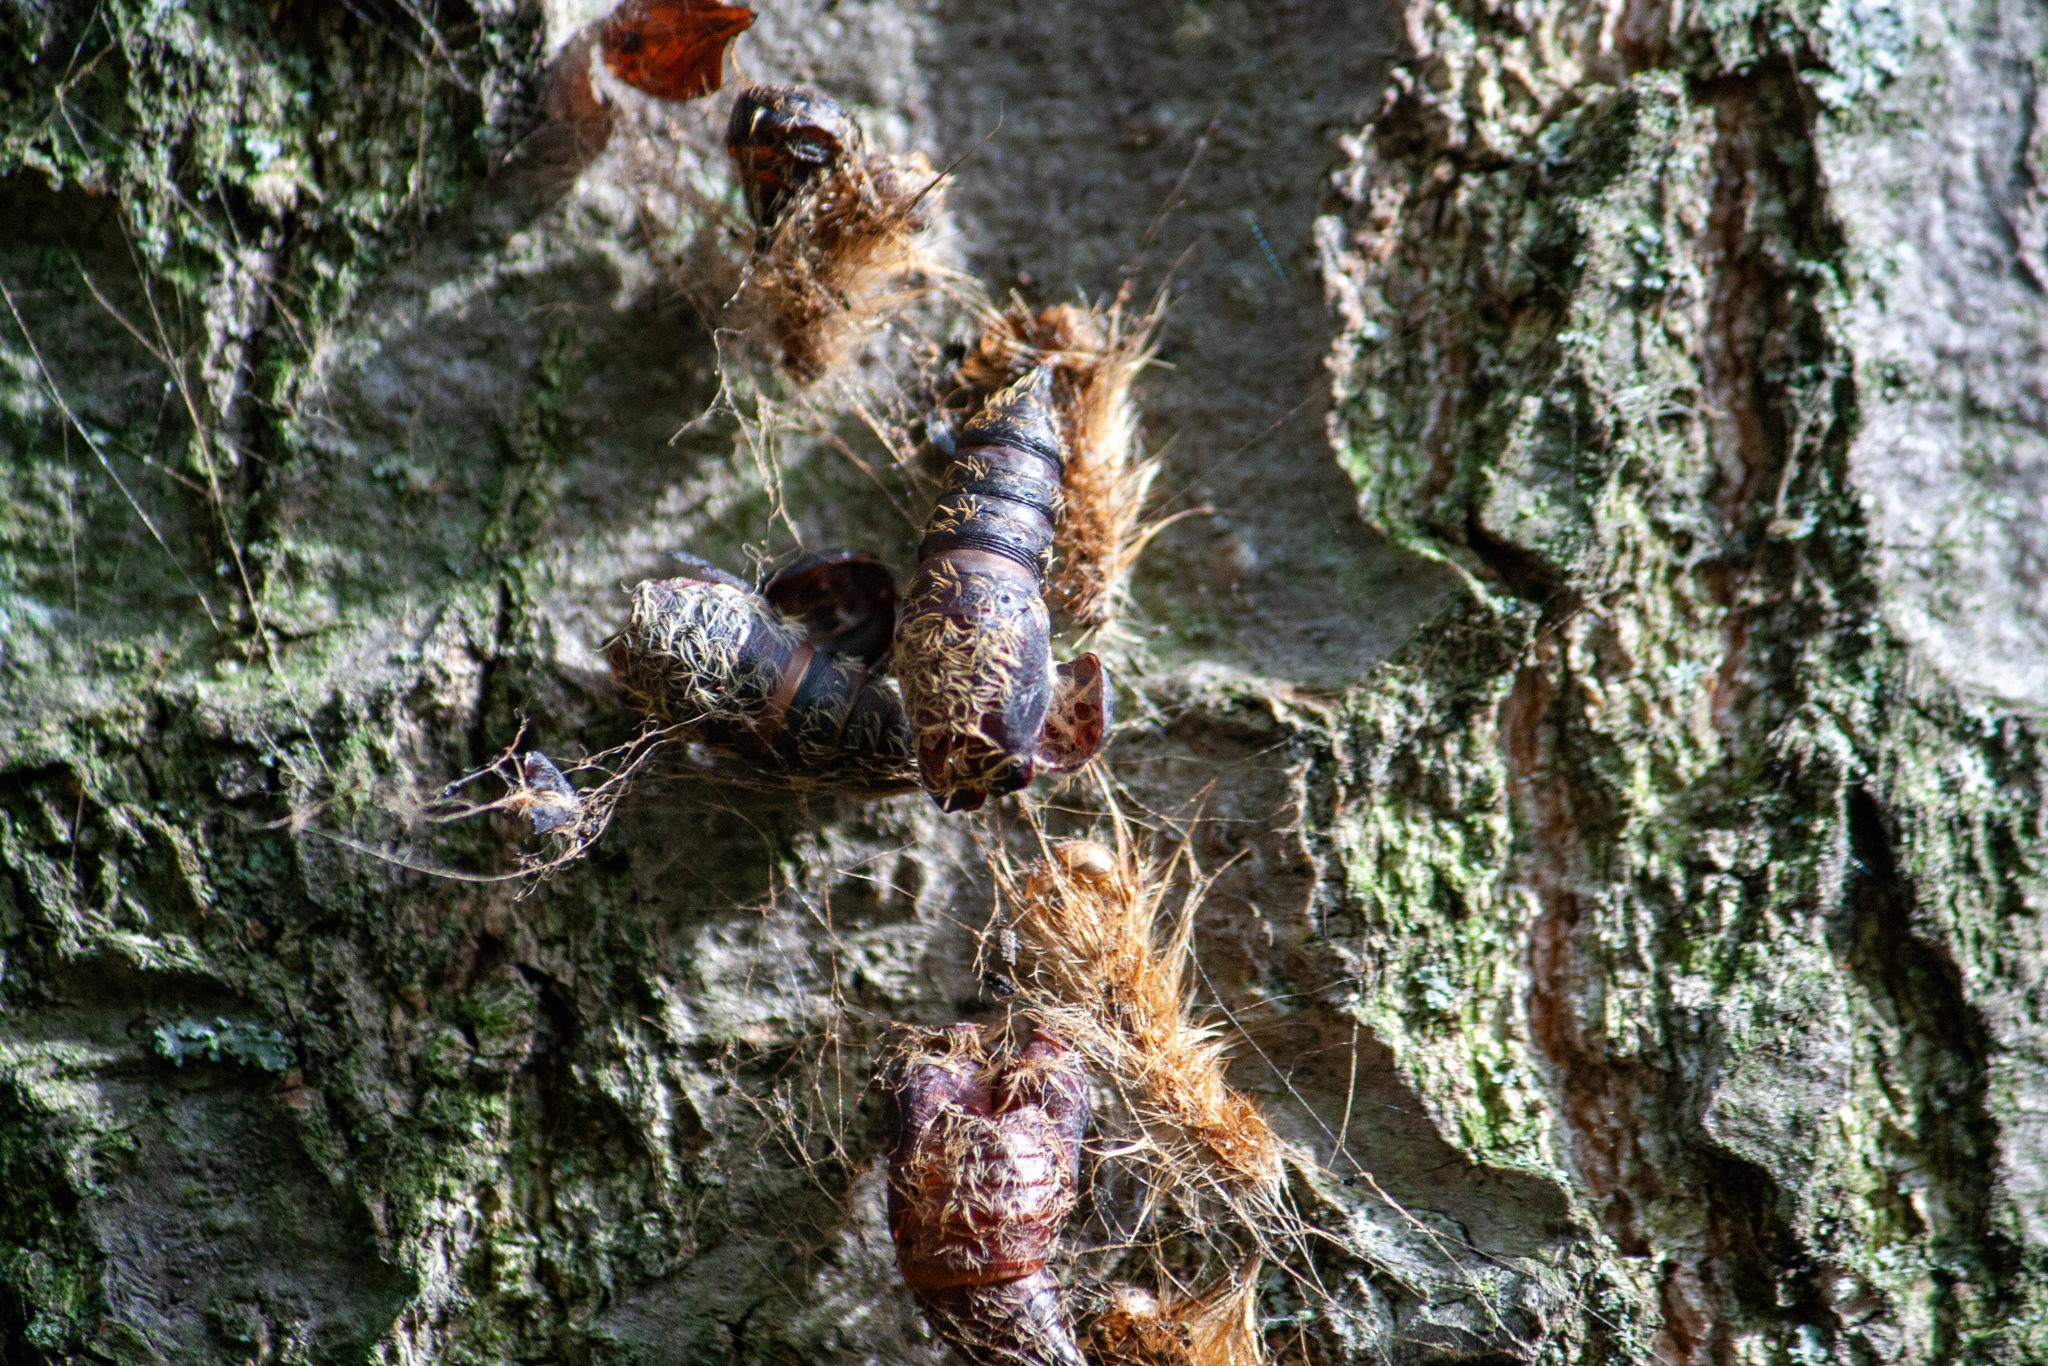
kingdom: Animalia
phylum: Arthropoda
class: Insecta
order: Lepidoptera
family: Erebidae
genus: Lymantria
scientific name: Lymantria dispar
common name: Gypsy moth
